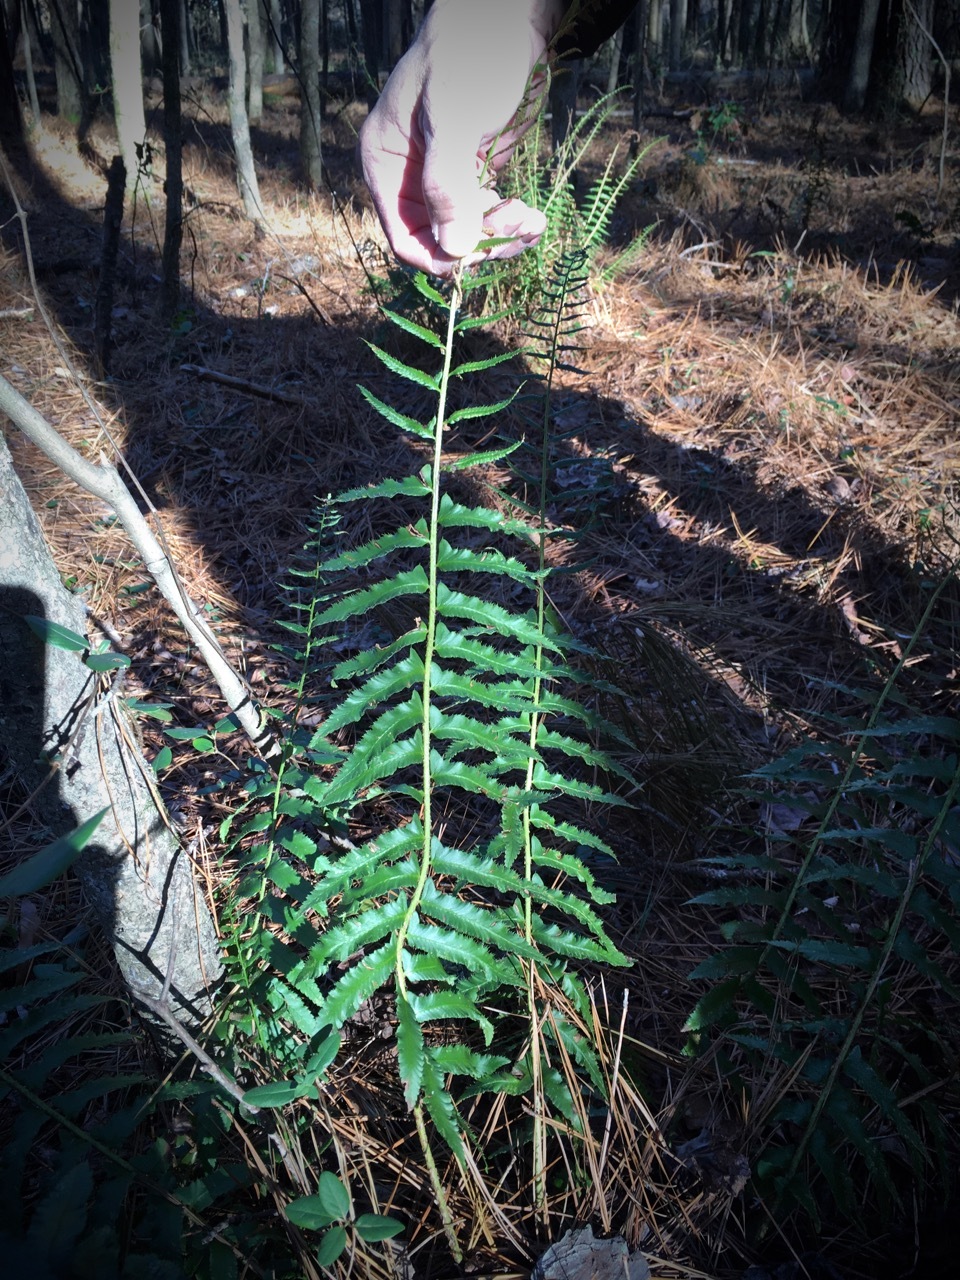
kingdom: Plantae
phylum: Tracheophyta
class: Polypodiopsida
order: Polypodiales
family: Dryopteridaceae
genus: Polystichum
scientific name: Polystichum acrostichoides
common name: Christmas fern
